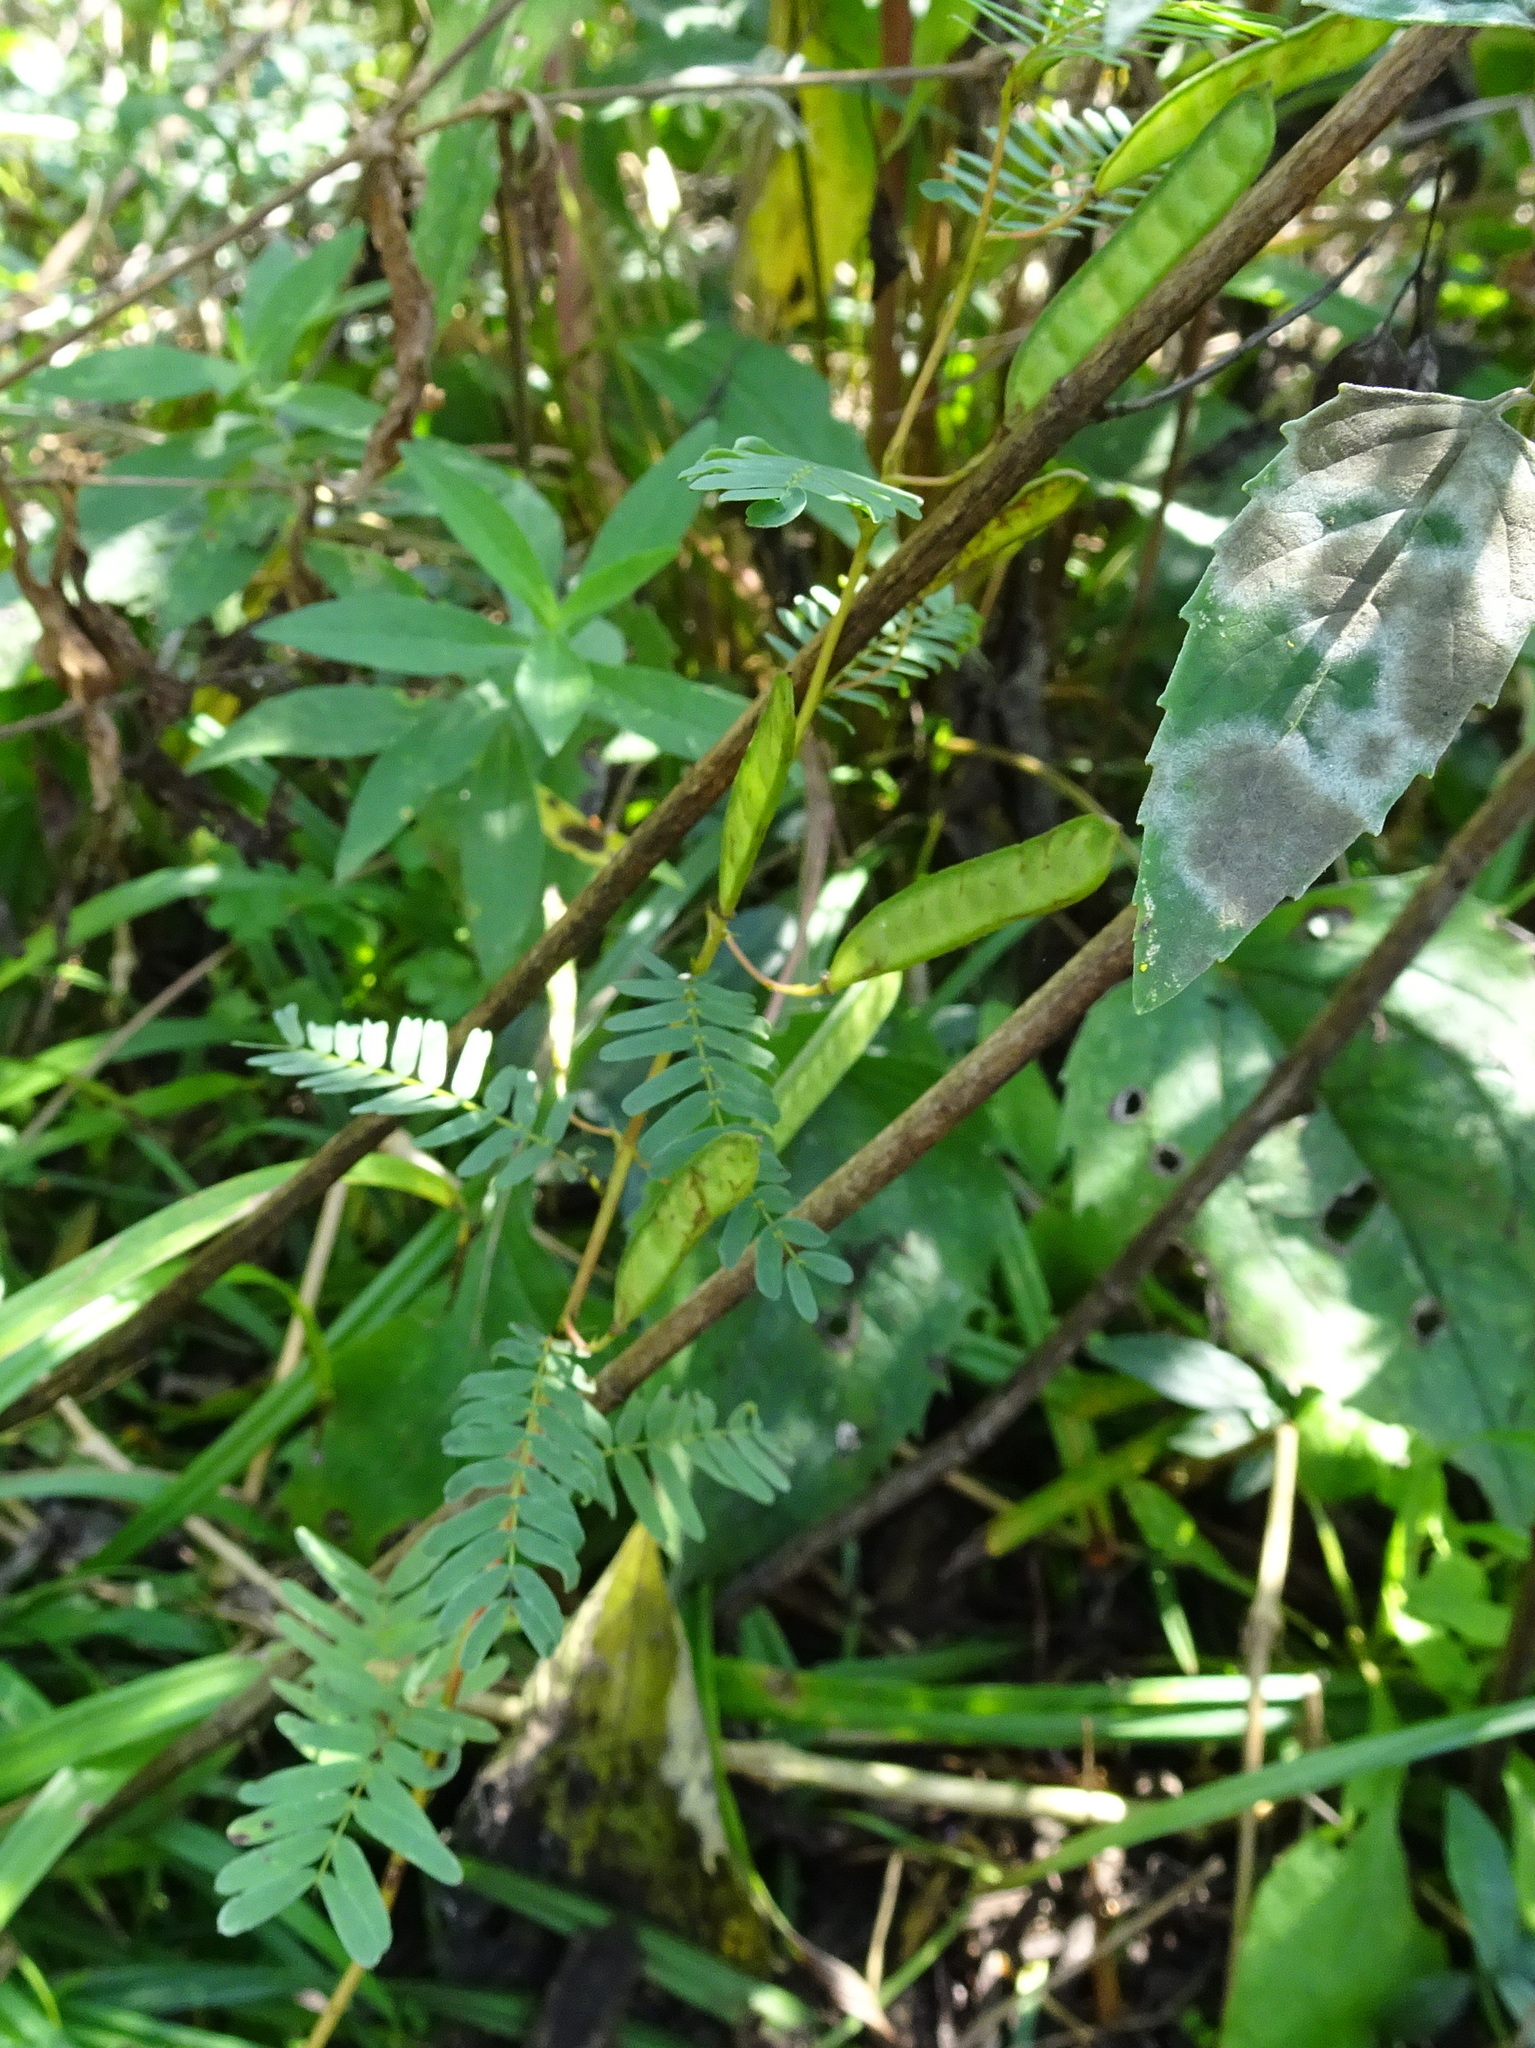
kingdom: Plantae
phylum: Tracheophyta
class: Magnoliopsida
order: Fabales
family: Fabaceae
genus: Chamaecrista
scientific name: Chamaecrista fasciculata
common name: Golden cassia
